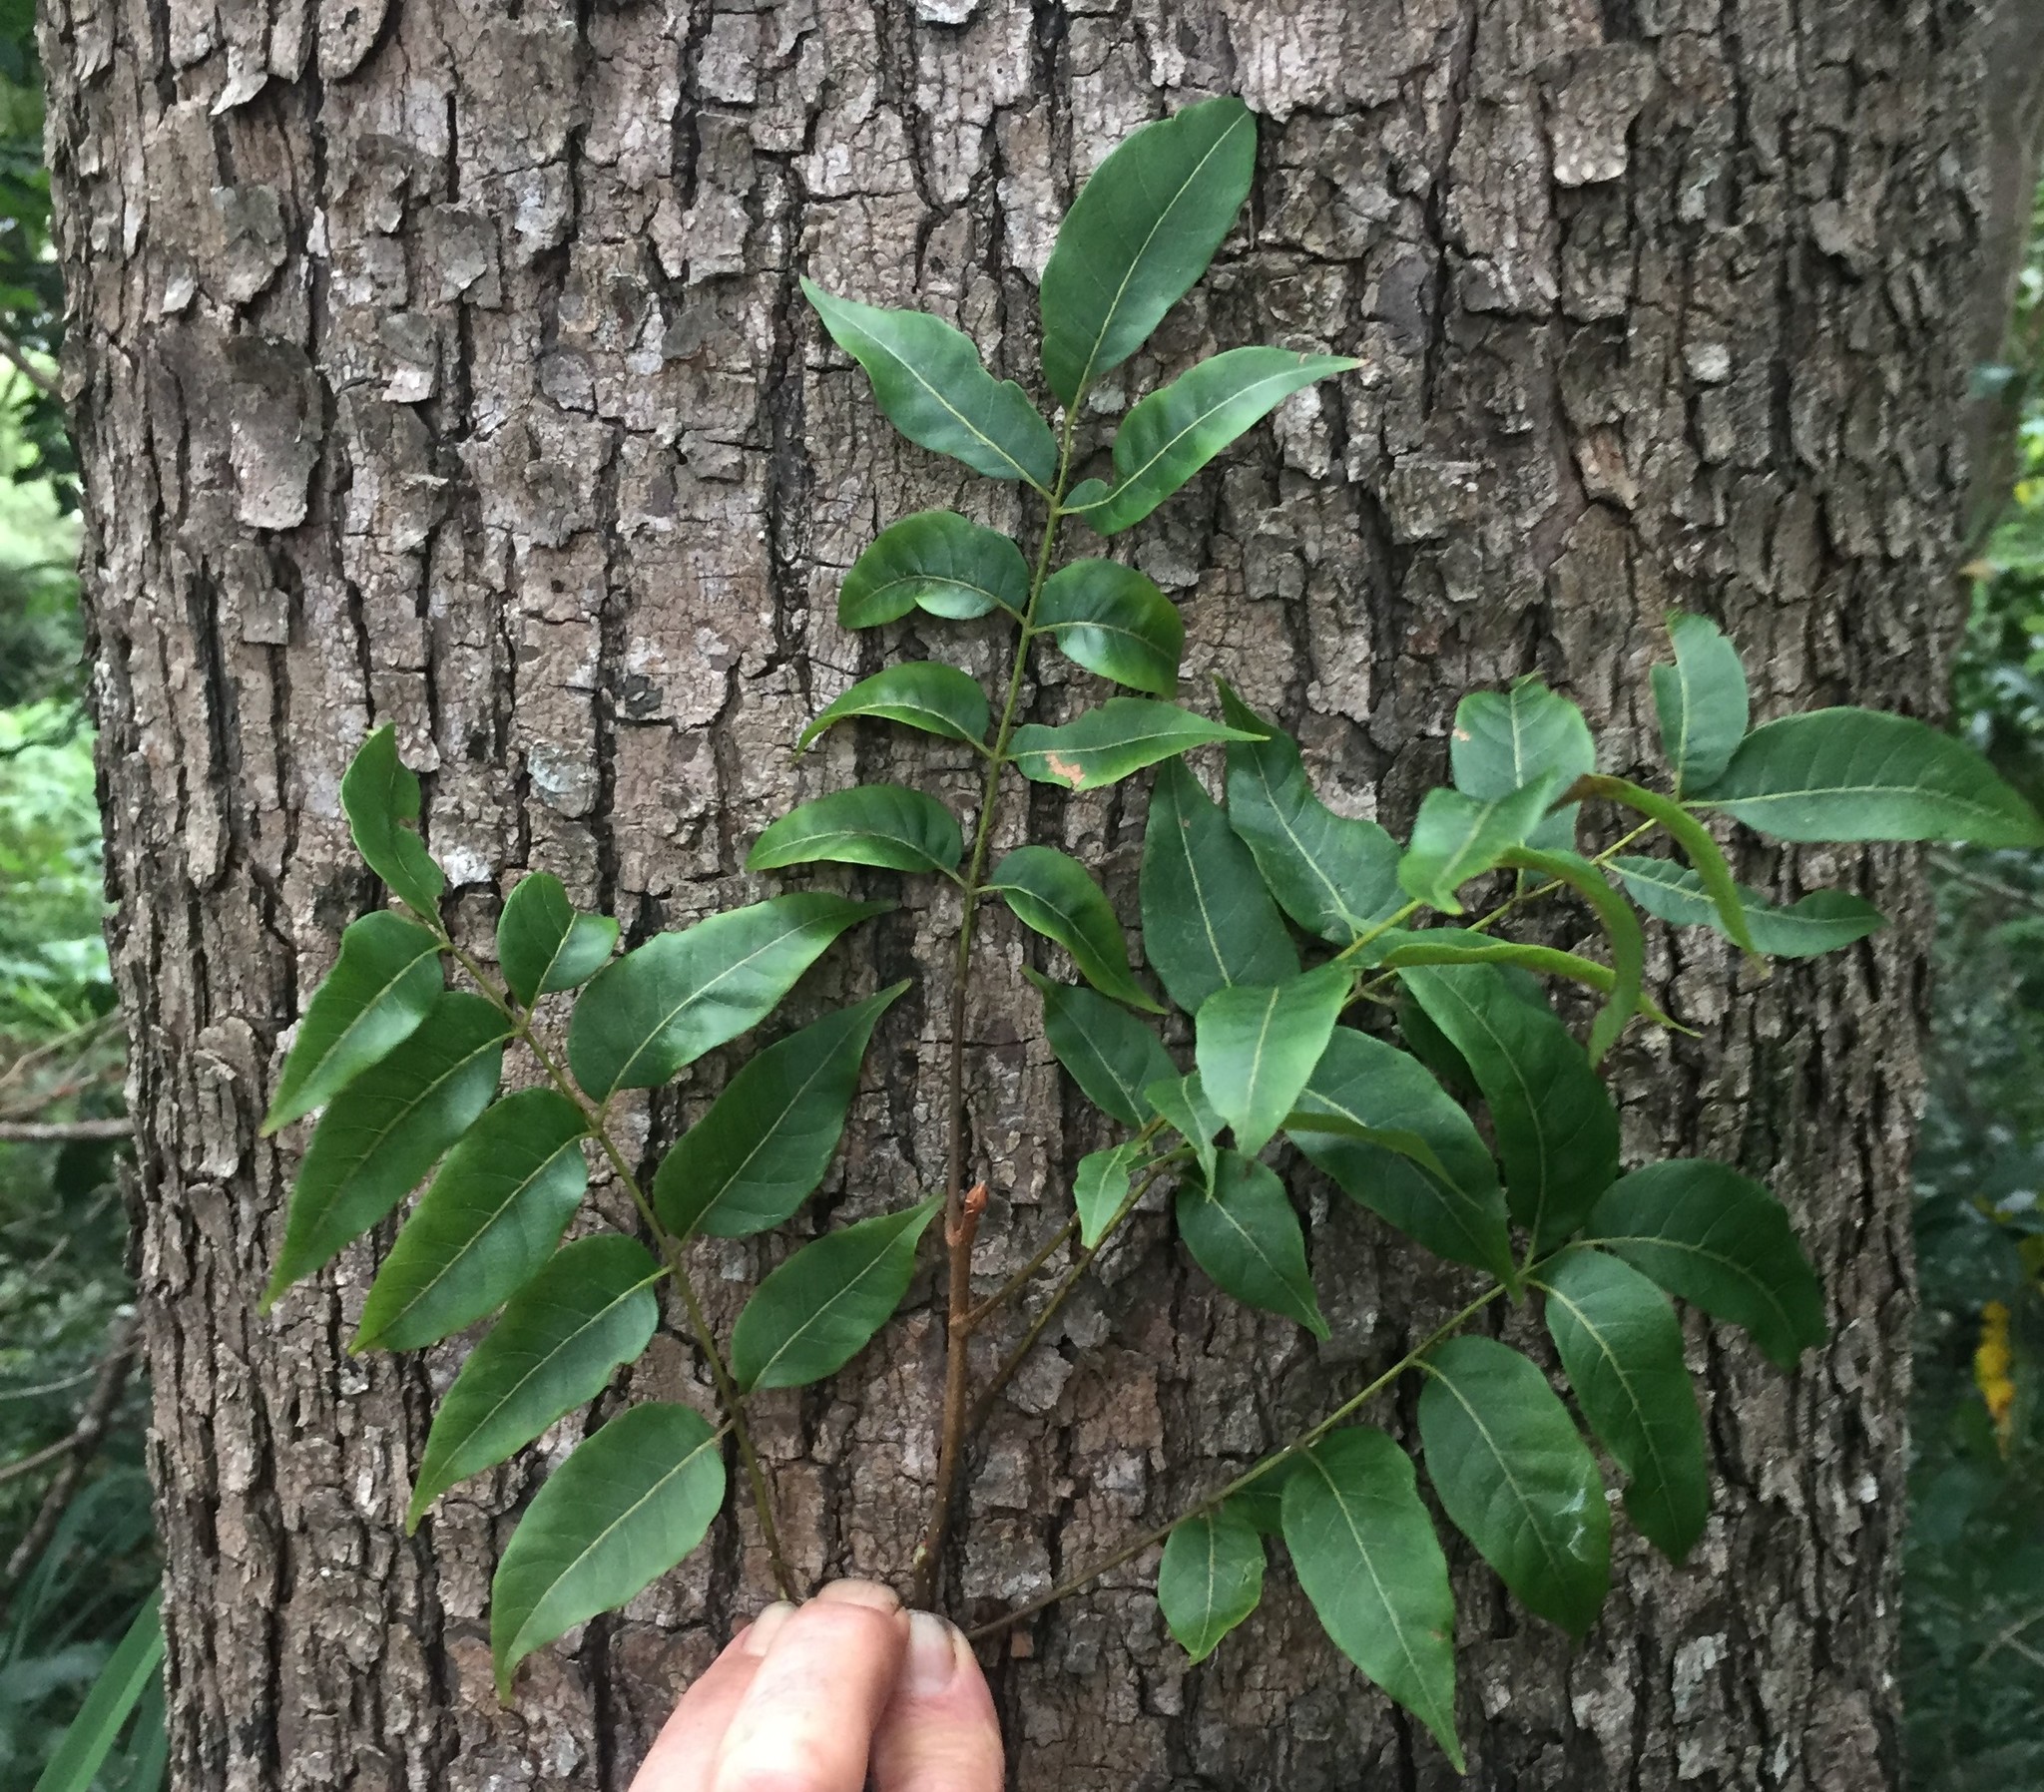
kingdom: Plantae
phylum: Tracheophyta
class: Magnoliopsida
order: Sapindales
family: Meliaceae
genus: Toona
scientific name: Toona ciliata
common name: Australian redcedar
